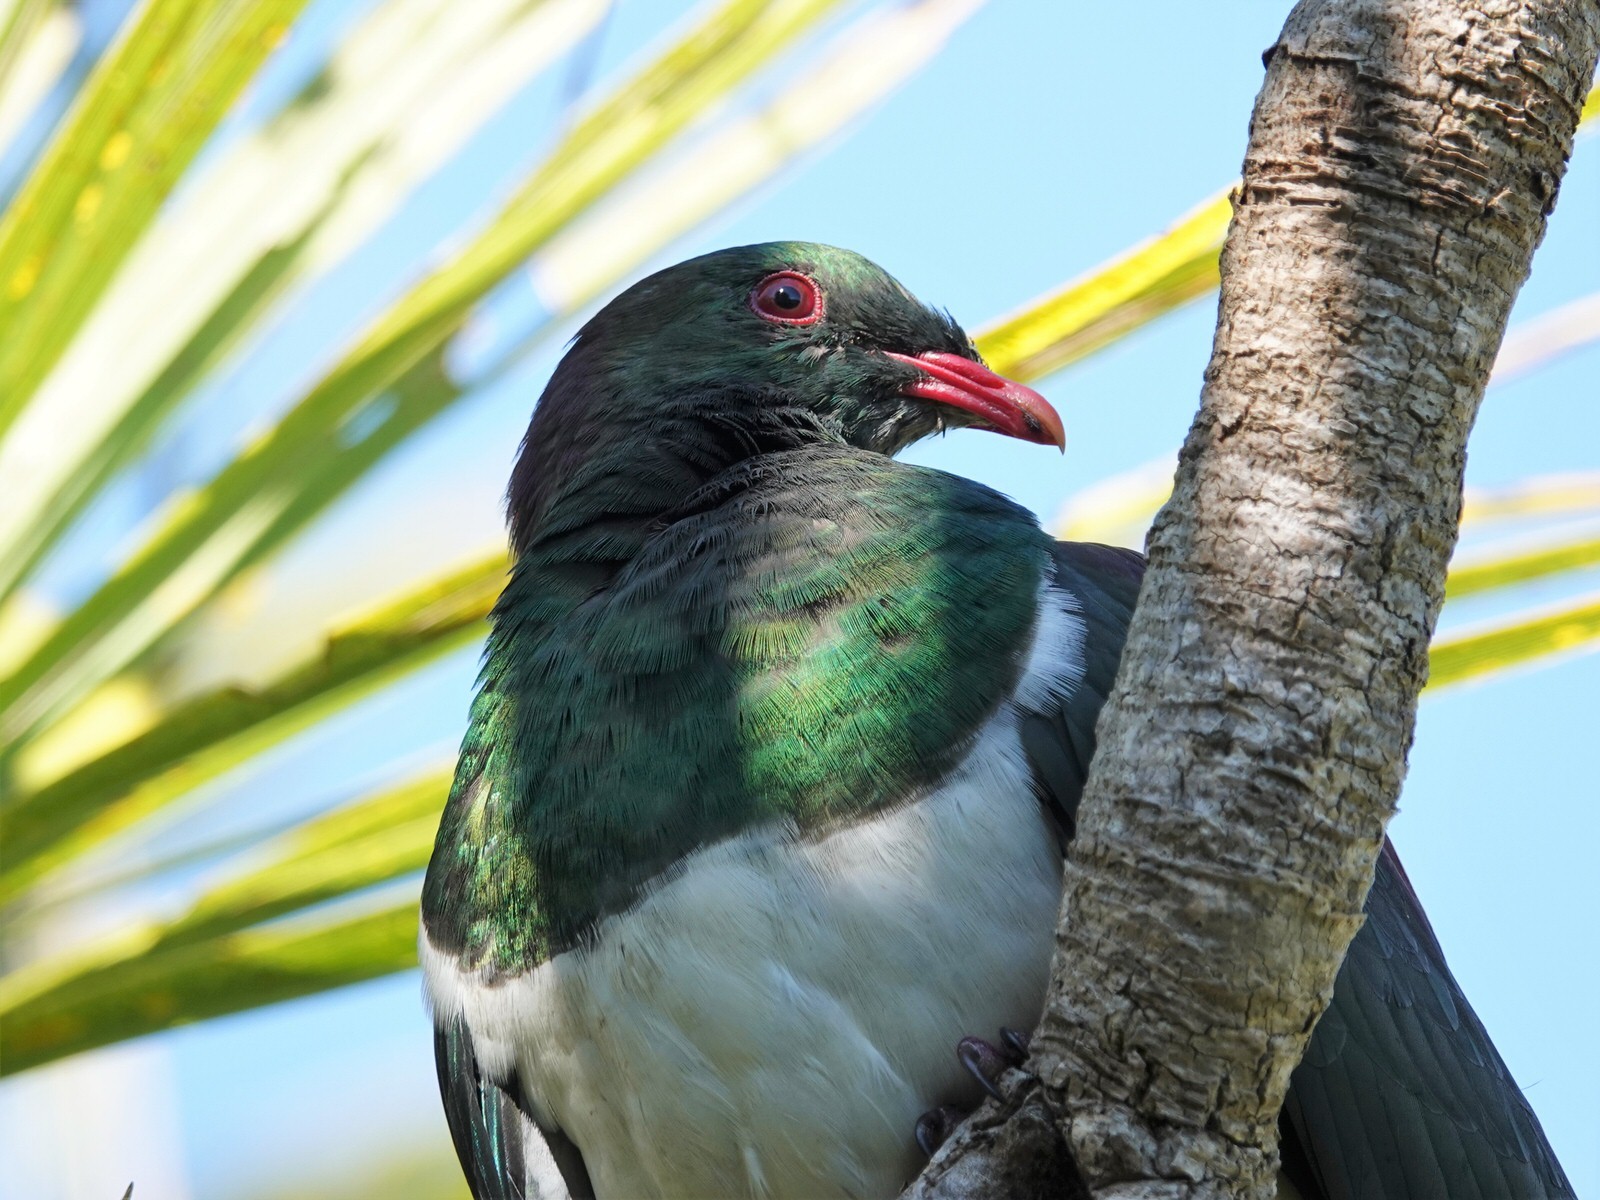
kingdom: Animalia
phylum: Chordata
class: Aves
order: Columbiformes
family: Columbidae
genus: Hemiphaga
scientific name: Hemiphaga novaeseelandiae
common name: New zealand pigeon
